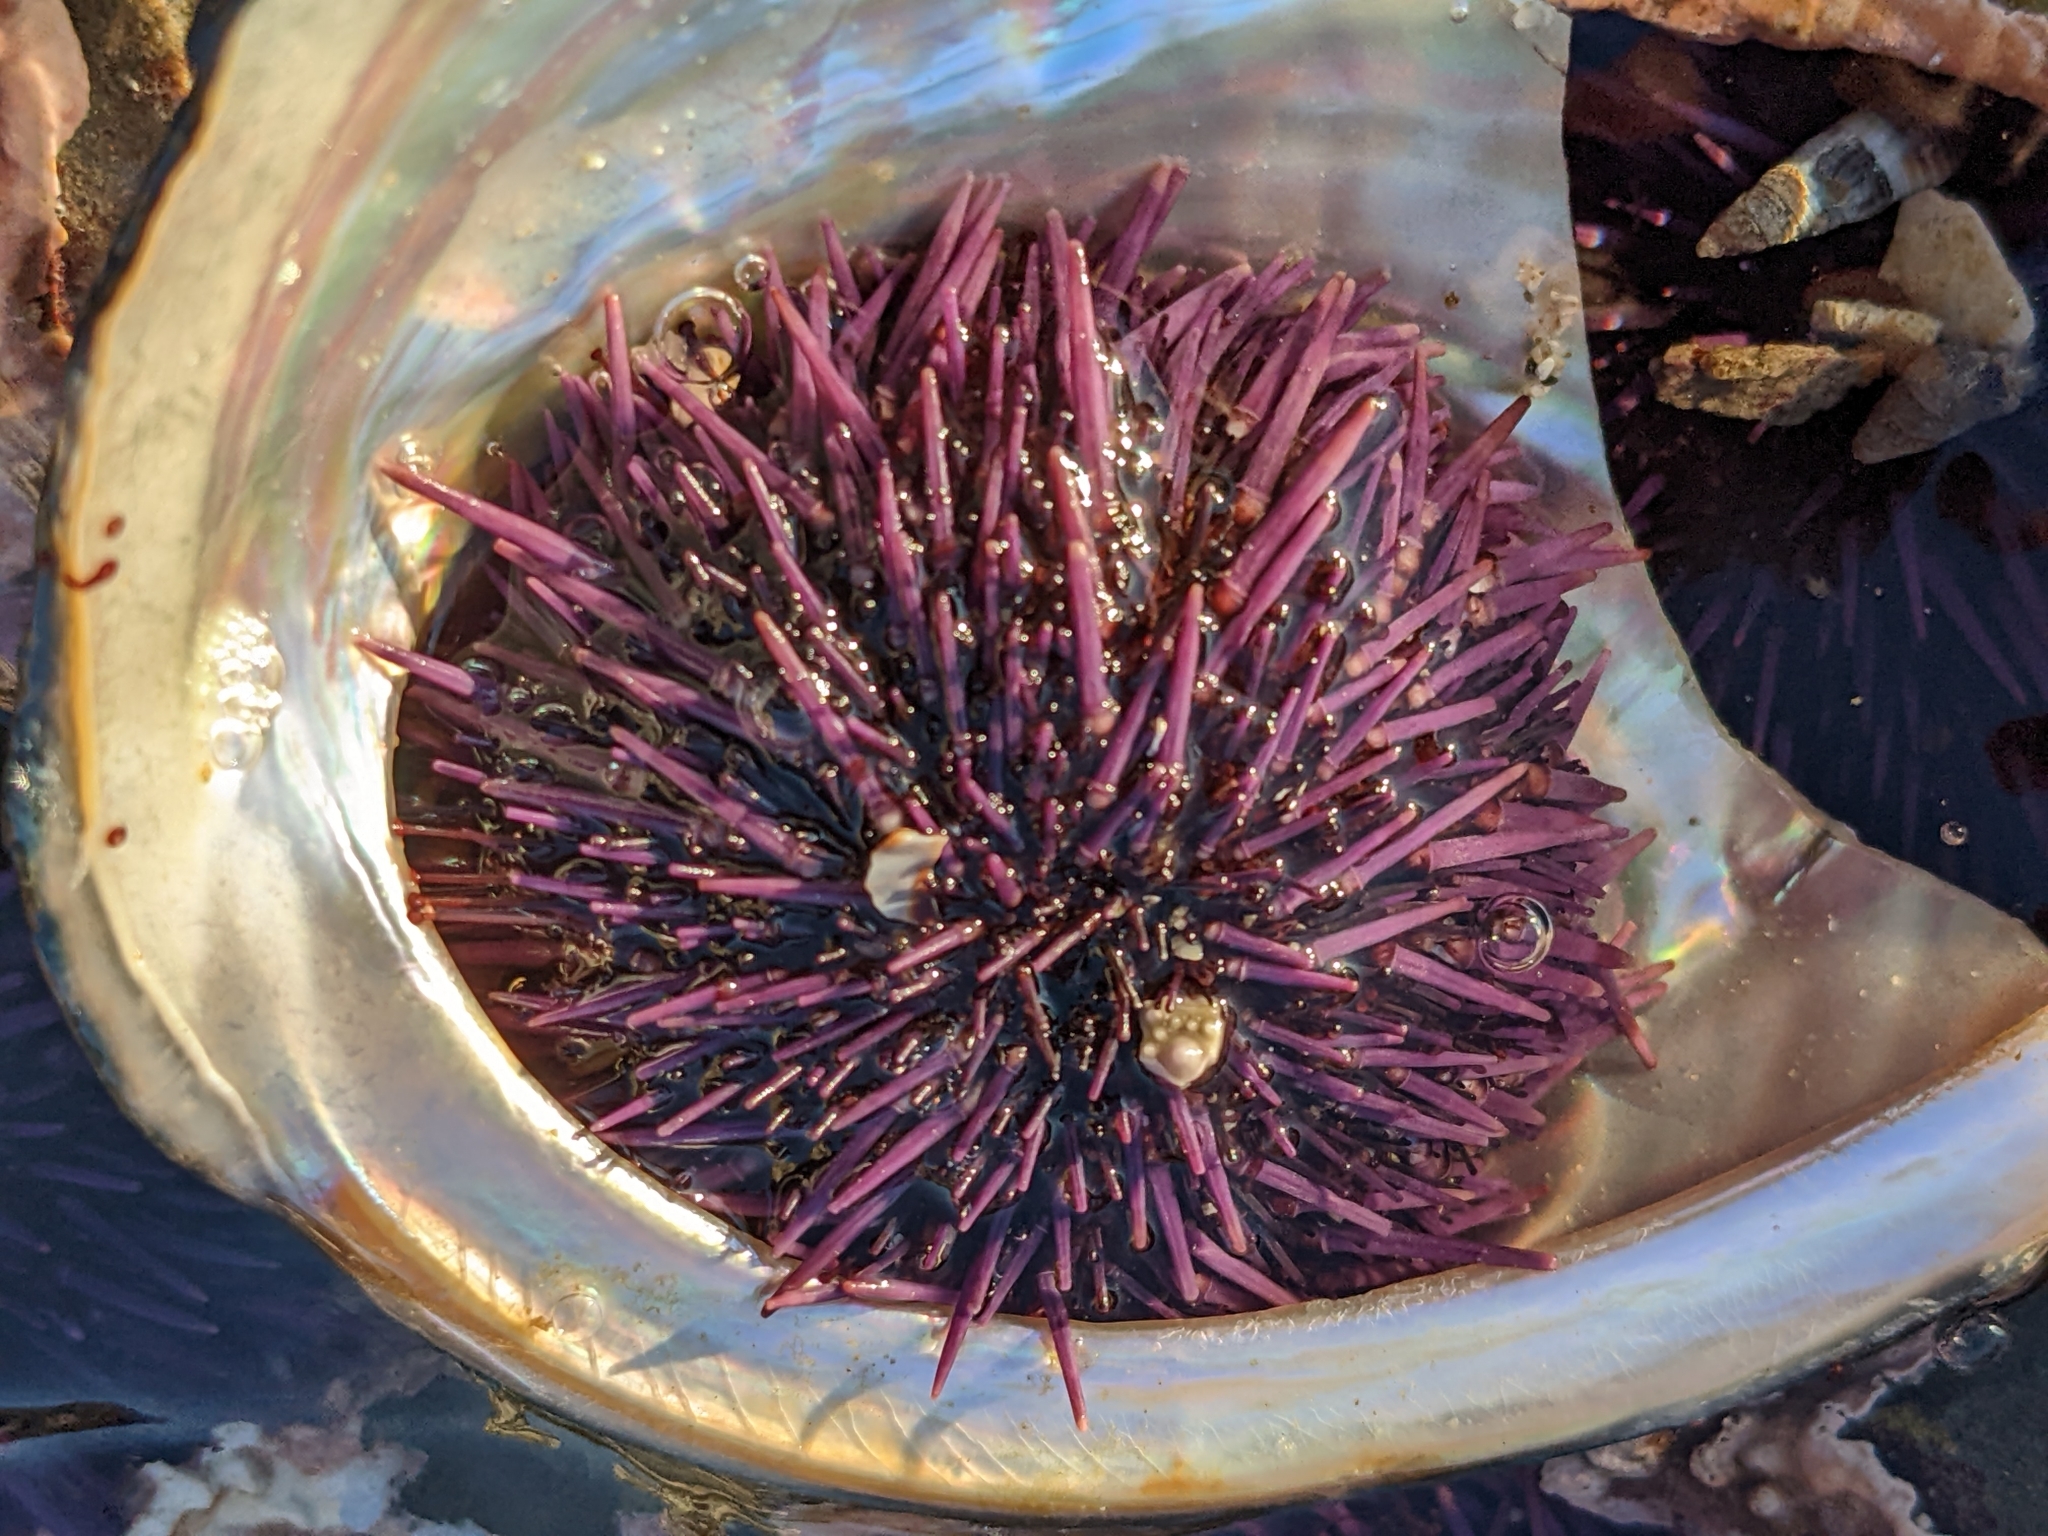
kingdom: Animalia
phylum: Echinodermata
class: Echinoidea
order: Camarodonta
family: Strongylocentrotidae
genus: Strongylocentrotus
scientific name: Strongylocentrotus purpuratus
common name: Purple sea urchin
